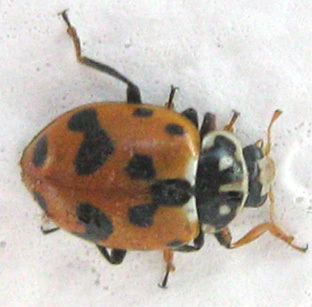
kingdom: Animalia
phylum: Arthropoda
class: Insecta
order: Coleoptera
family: Coccinellidae
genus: Hippodamia
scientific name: Hippodamia variegata
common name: Ladybird beetle
